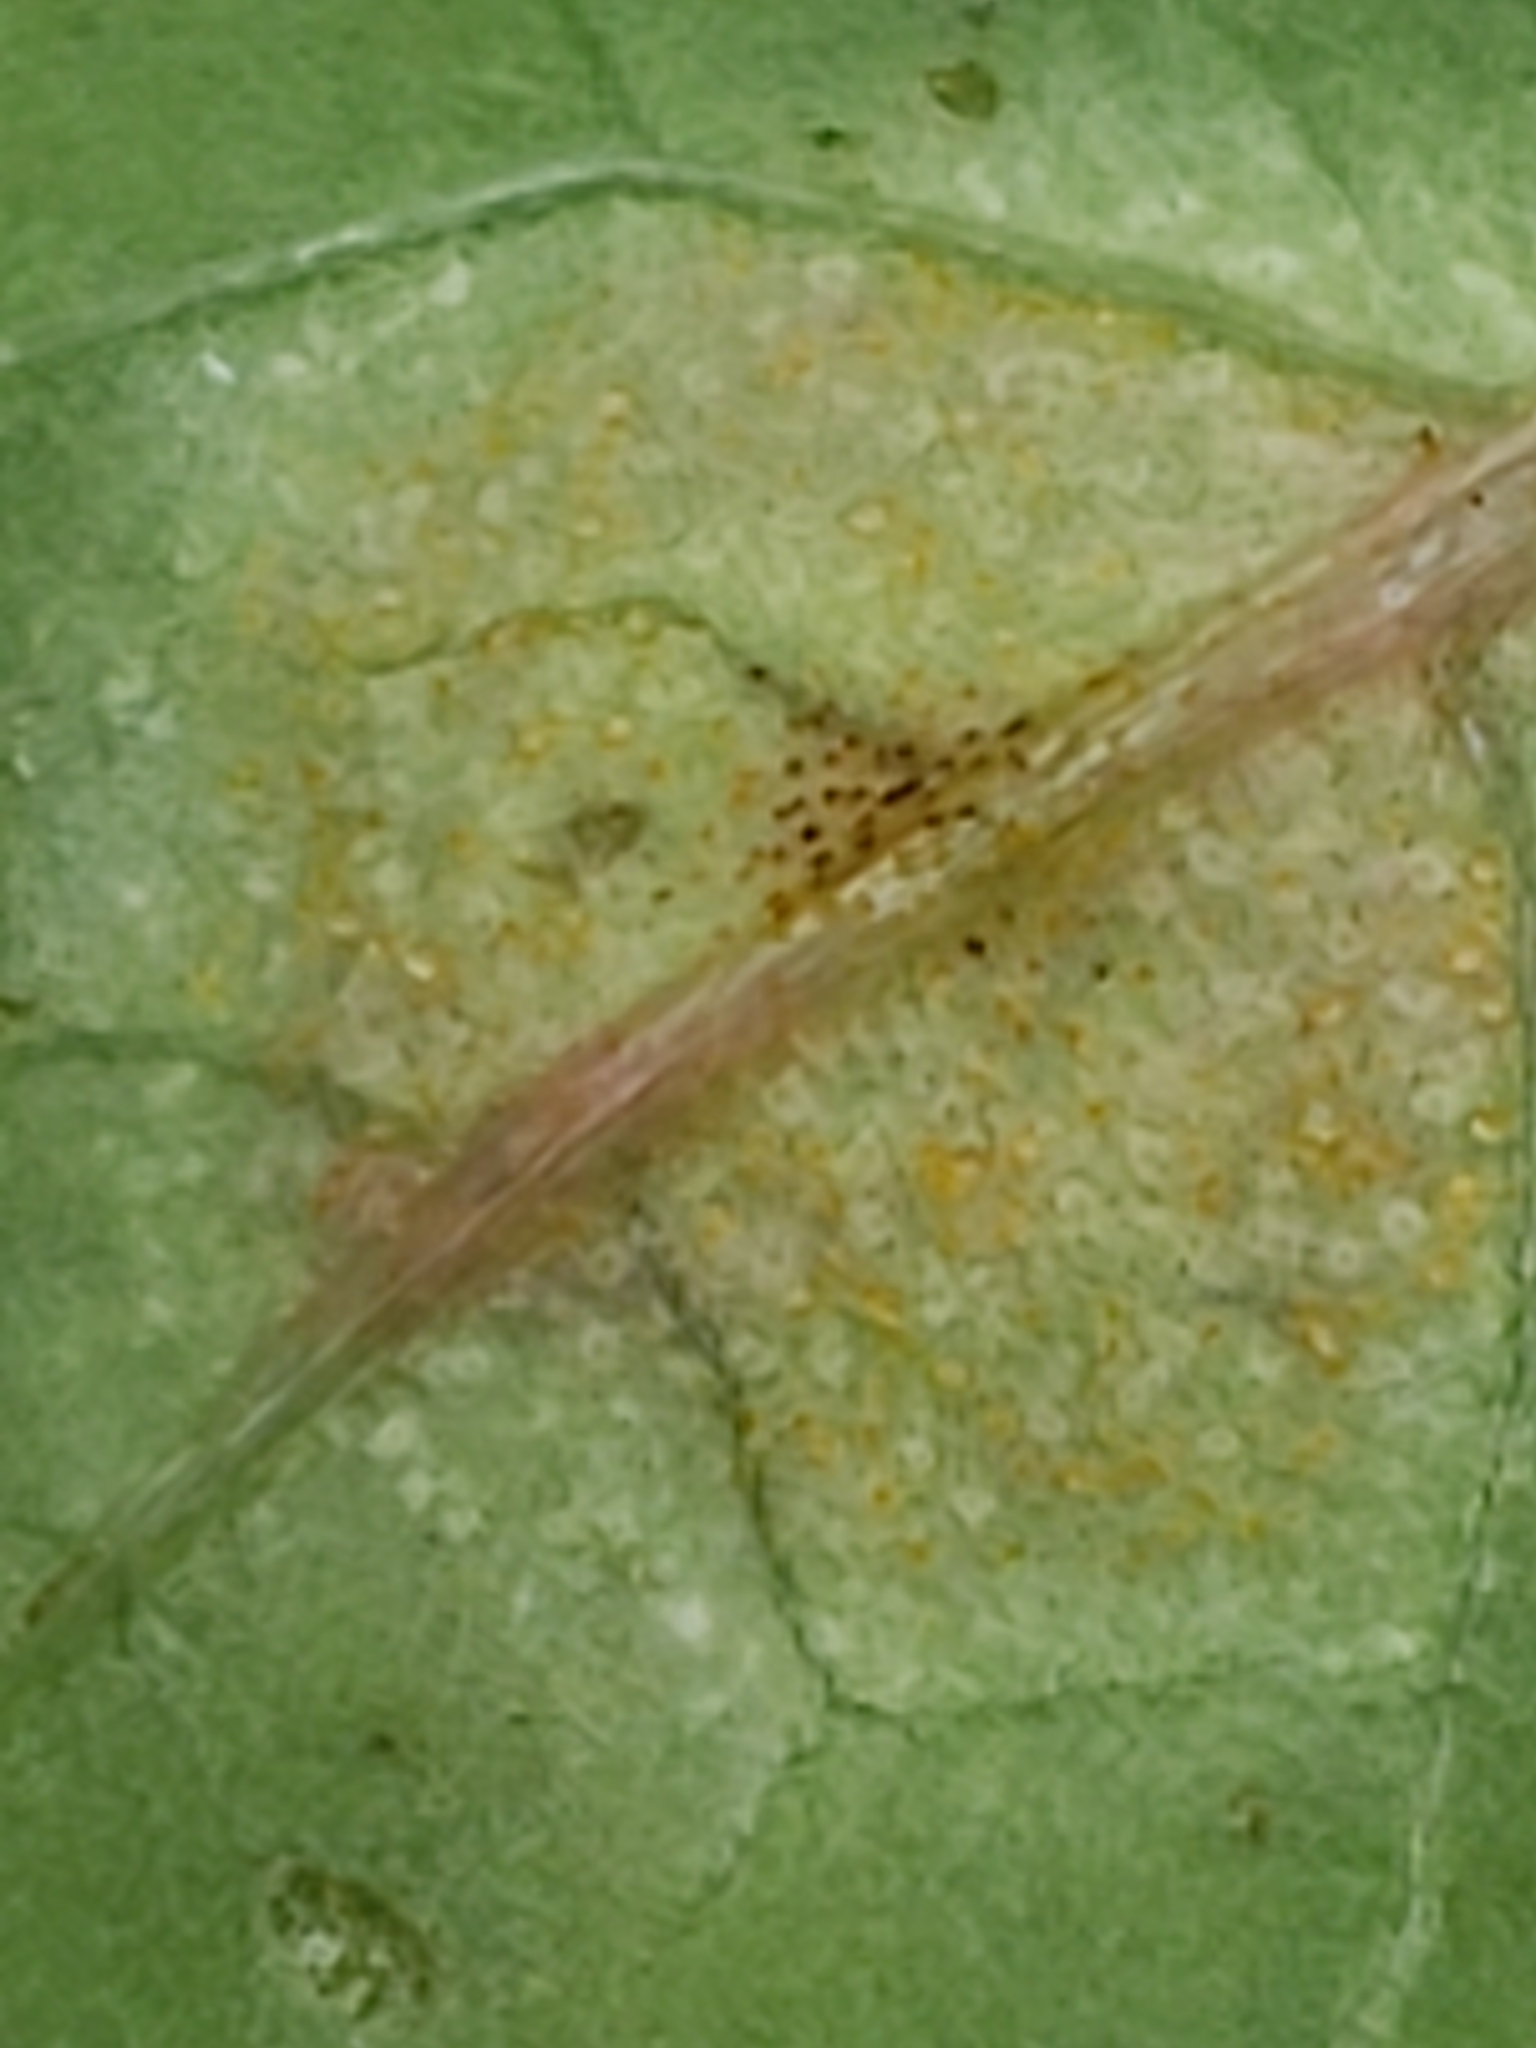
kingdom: Fungi
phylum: Basidiomycota
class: Pucciniomycetes
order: Pucciniales
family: Pucciniaceae
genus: Puccinia
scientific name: Puccinia recondita
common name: Brown rust of wheat
